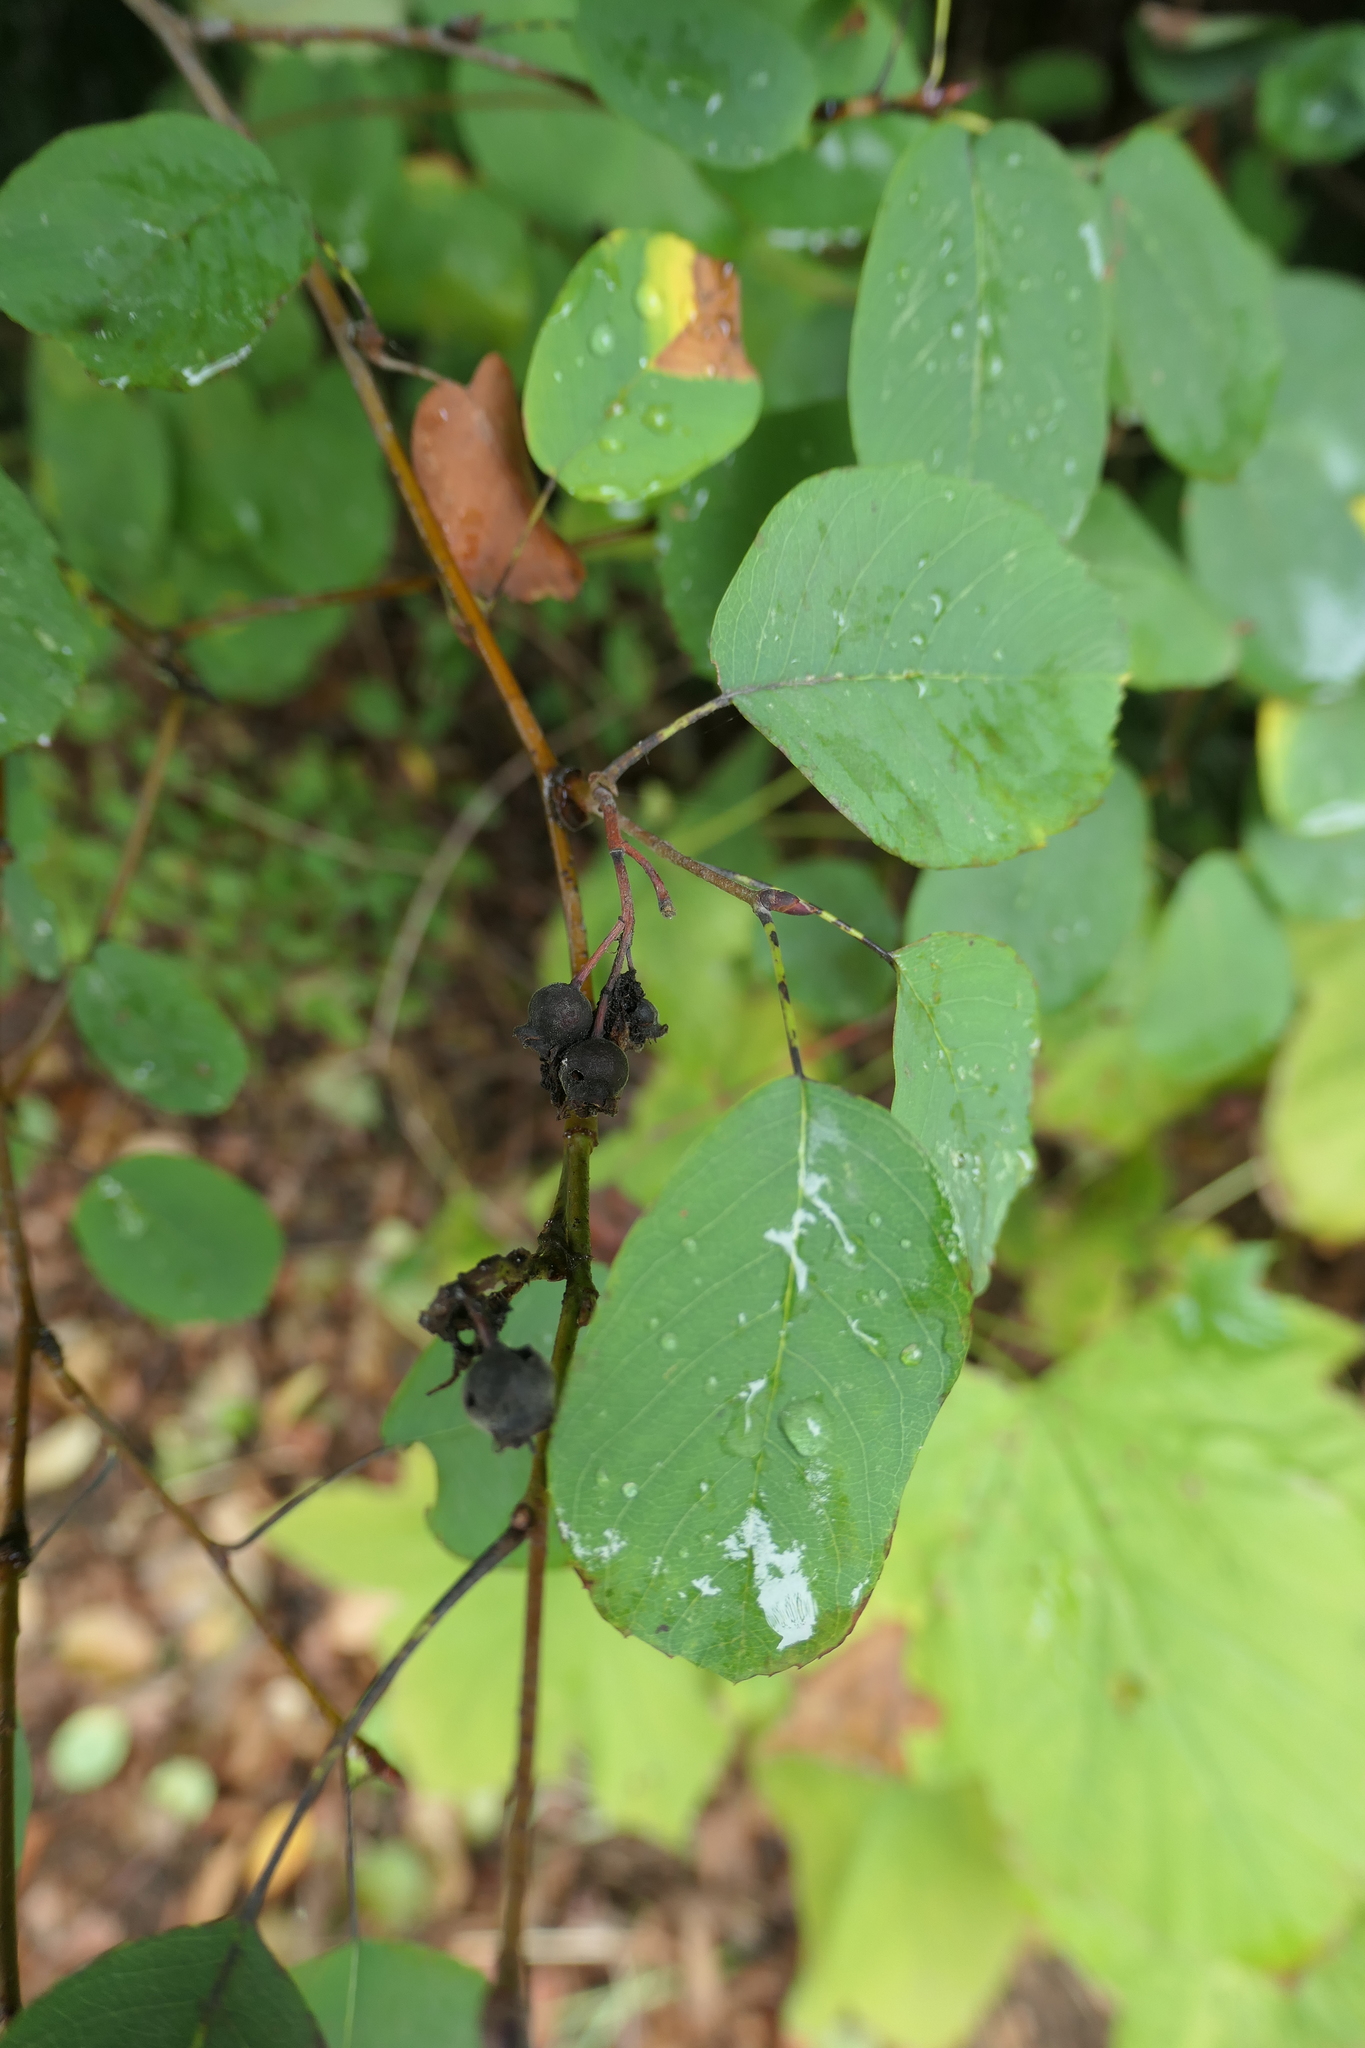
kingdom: Plantae
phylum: Tracheophyta
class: Magnoliopsida
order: Rosales
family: Rosaceae
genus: Amelanchier
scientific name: Amelanchier alnifolia
